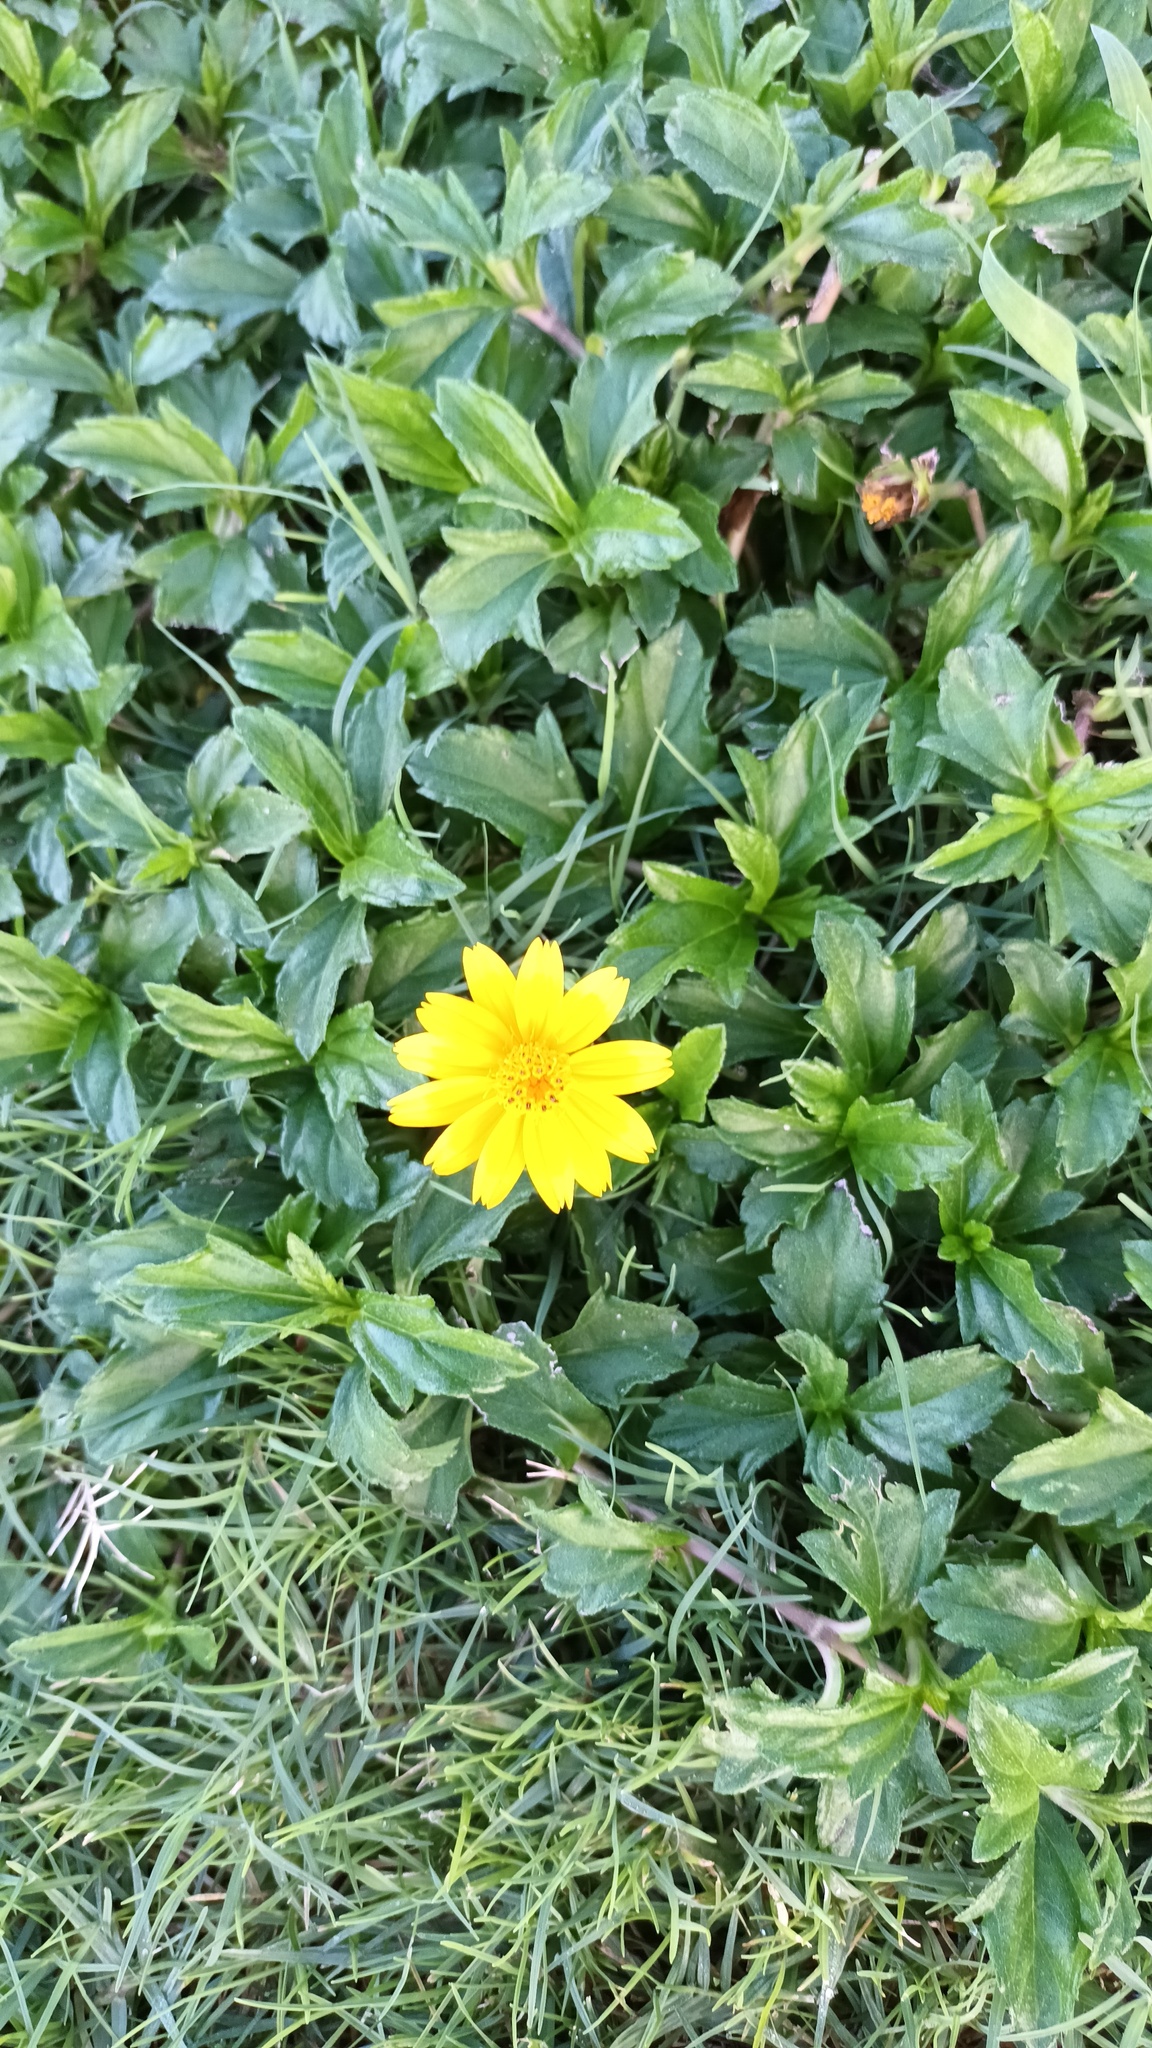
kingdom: Plantae
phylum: Tracheophyta
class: Magnoliopsida
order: Asterales
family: Asteraceae
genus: Sphagneticola
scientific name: Sphagneticola trilobata
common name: Bay biscayne creeping-oxeye
